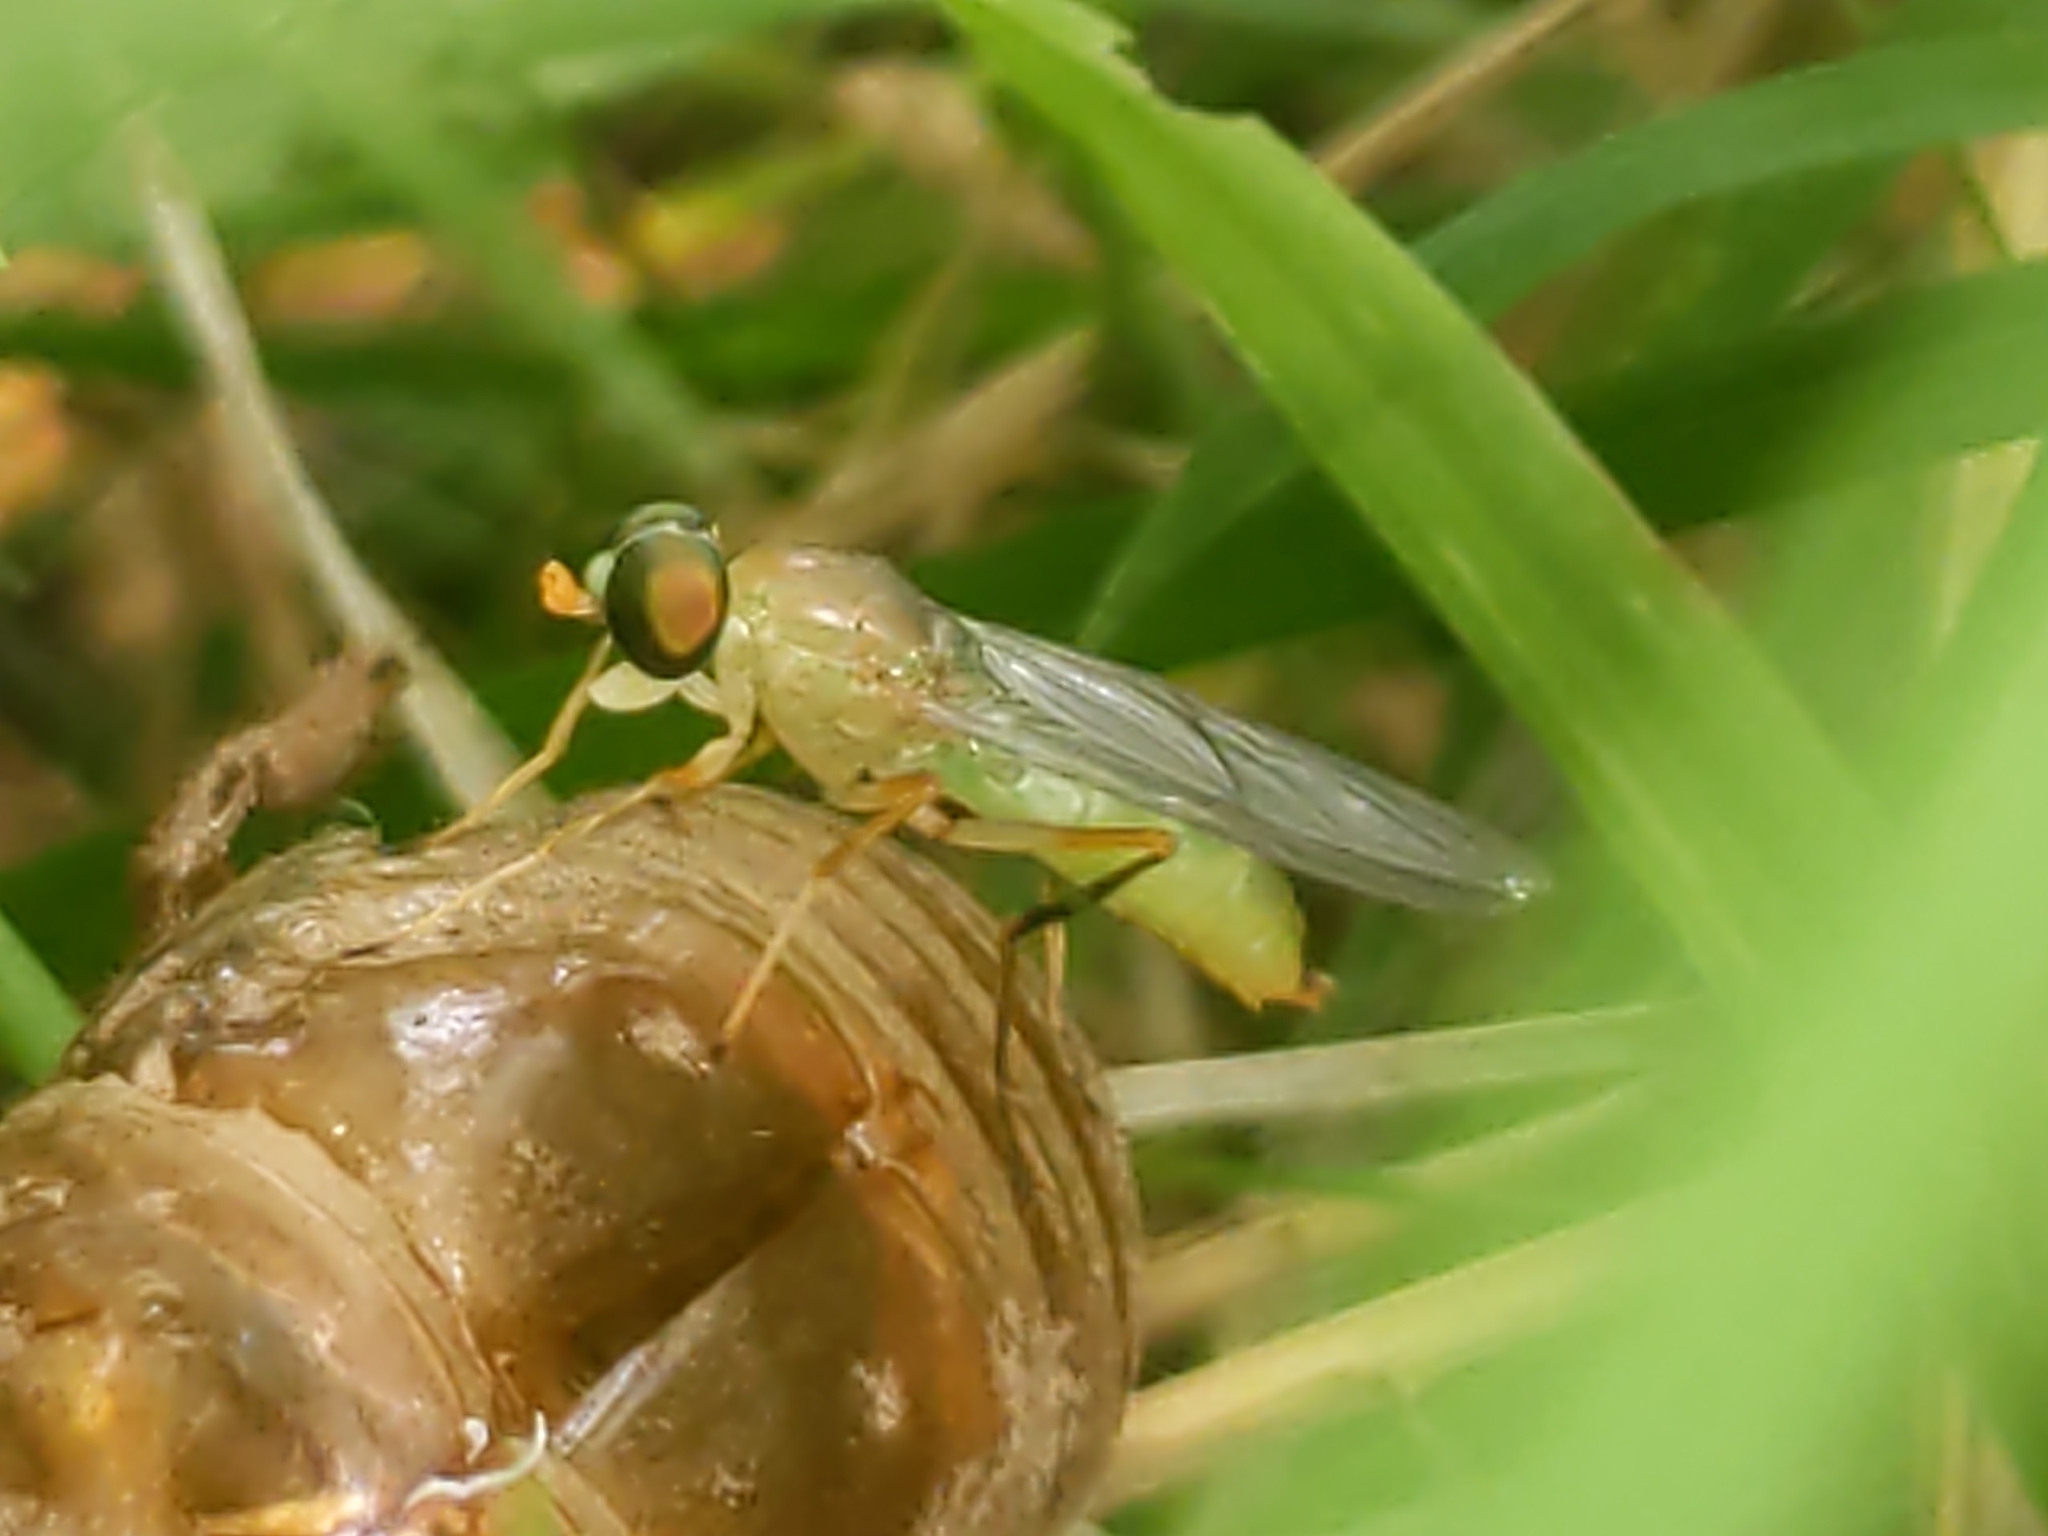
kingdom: Animalia
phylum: Arthropoda
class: Insecta
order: Diptera
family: Stratiomyidae
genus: Ptecticus
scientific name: Ptecticus trivittatus
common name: Compost fly
